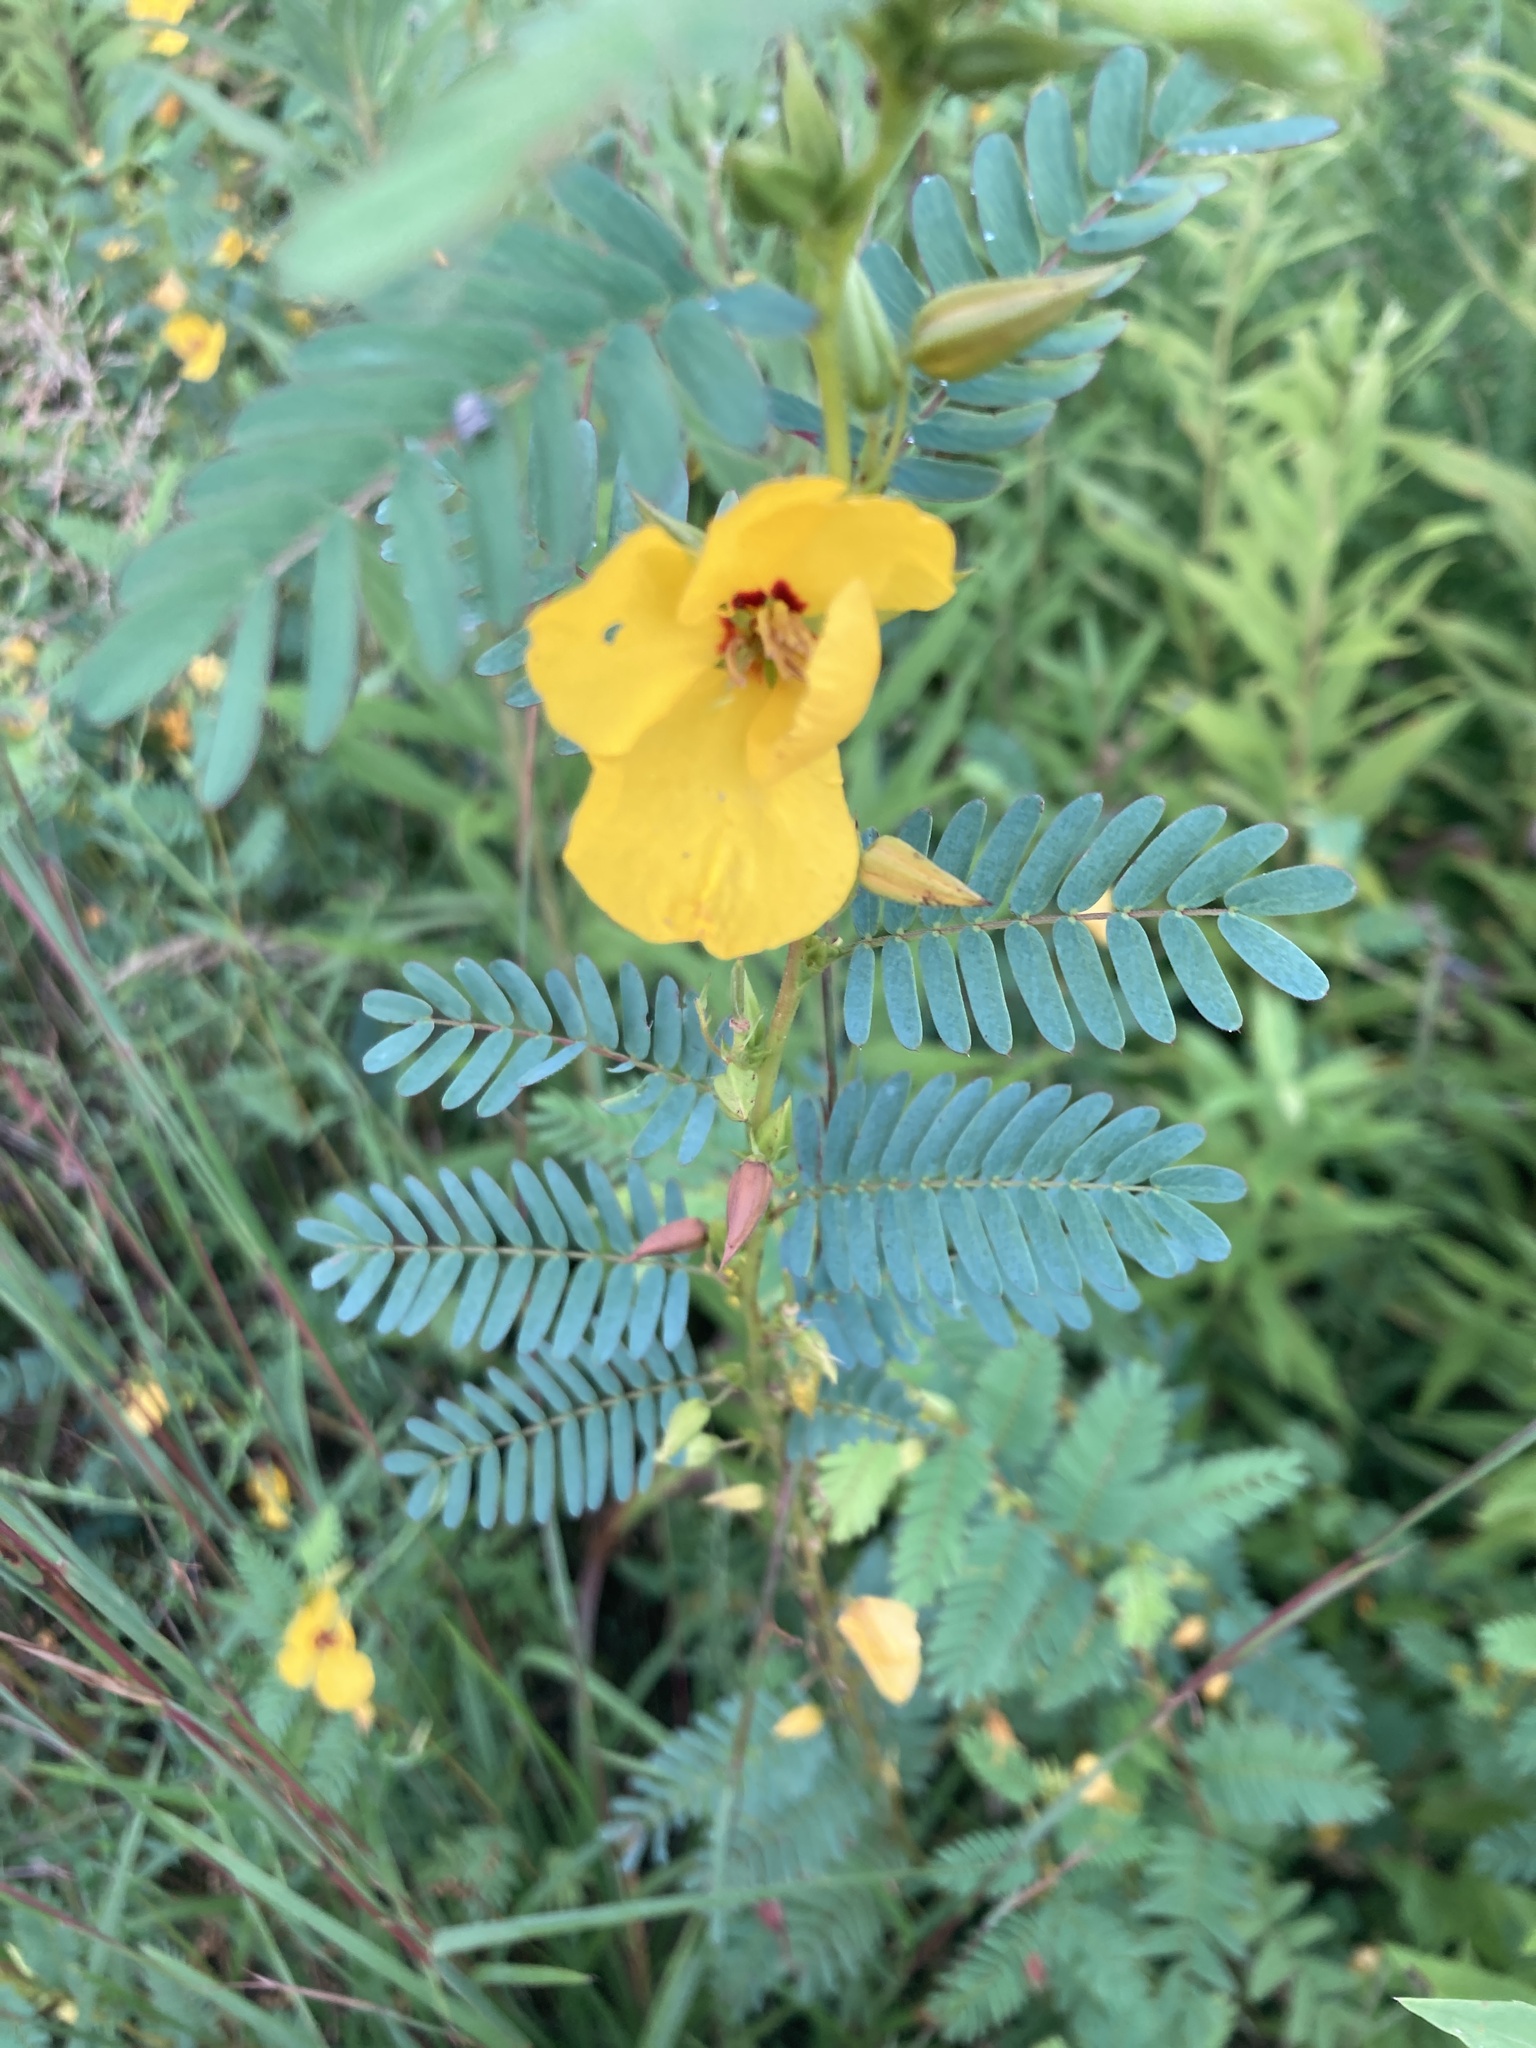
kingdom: Plantae
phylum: Tracheophyta
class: Magnoliopsida
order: Fabales
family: Fabaceae
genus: Chamaecrista
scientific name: Chamaecrista fasciculata
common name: Golden cassia
